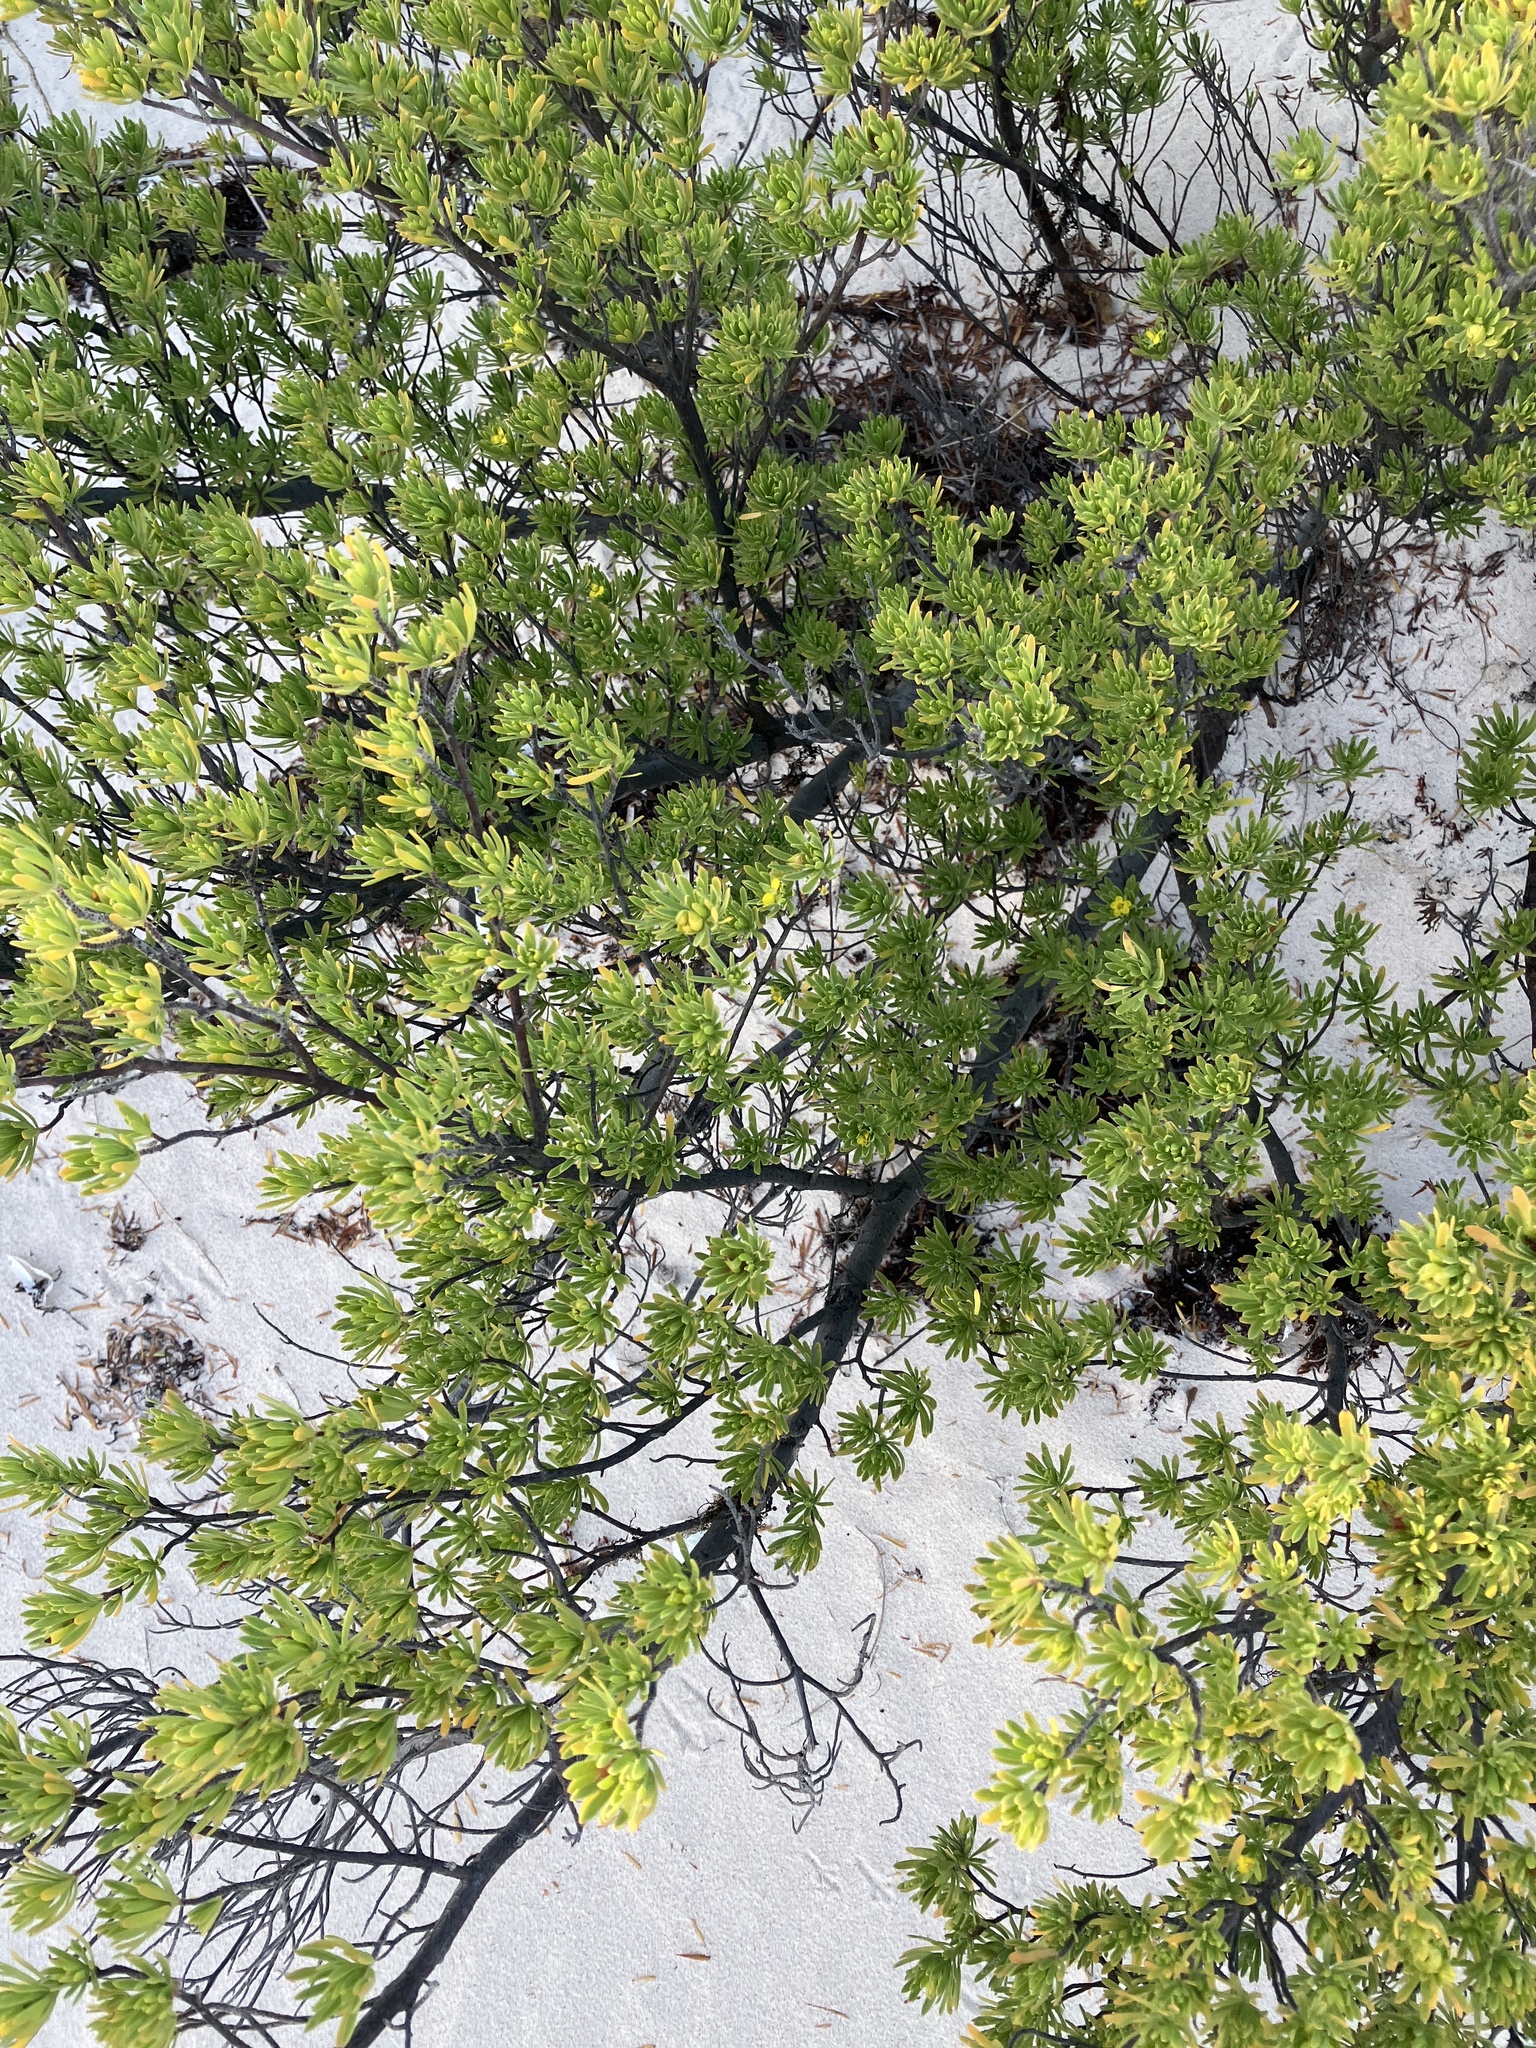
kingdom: Plantae
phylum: Tracheophyta
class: Magnoliopsida
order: Fabales
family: Surianaceae
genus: Suriana
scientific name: Suriana maritima
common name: Bay-cedar
